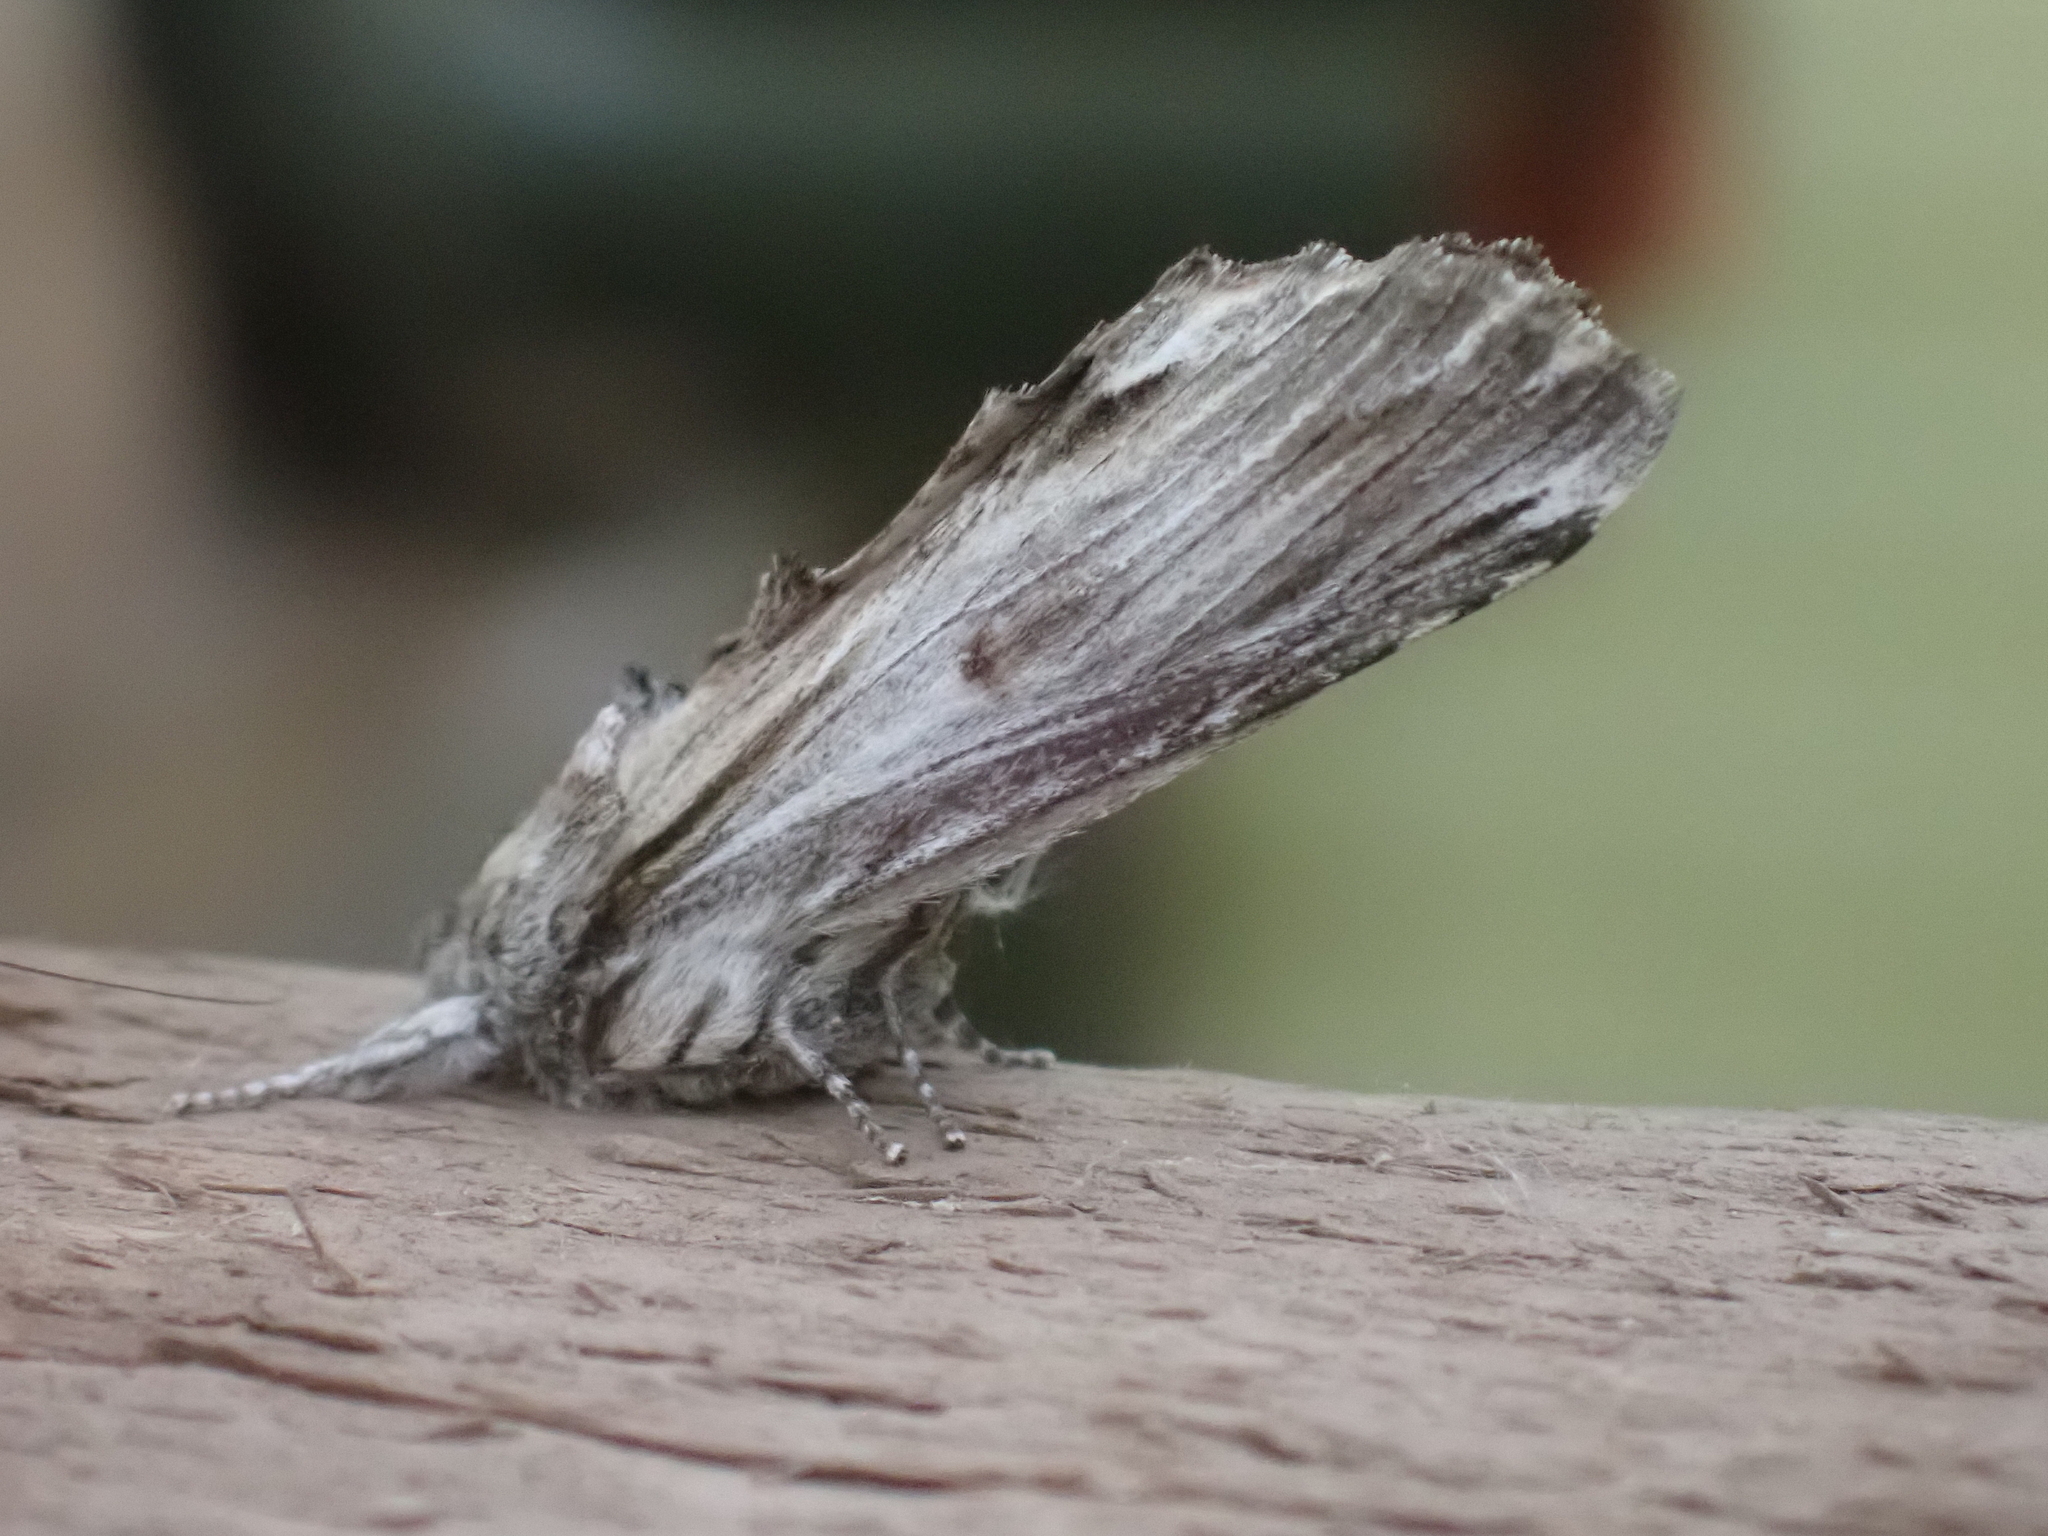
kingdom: Animalia
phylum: Arthropoda
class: Insecta
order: Lepidoptera
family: Notodontidae
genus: Oligocentria
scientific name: Oligocentria Ianassa lignicolor
